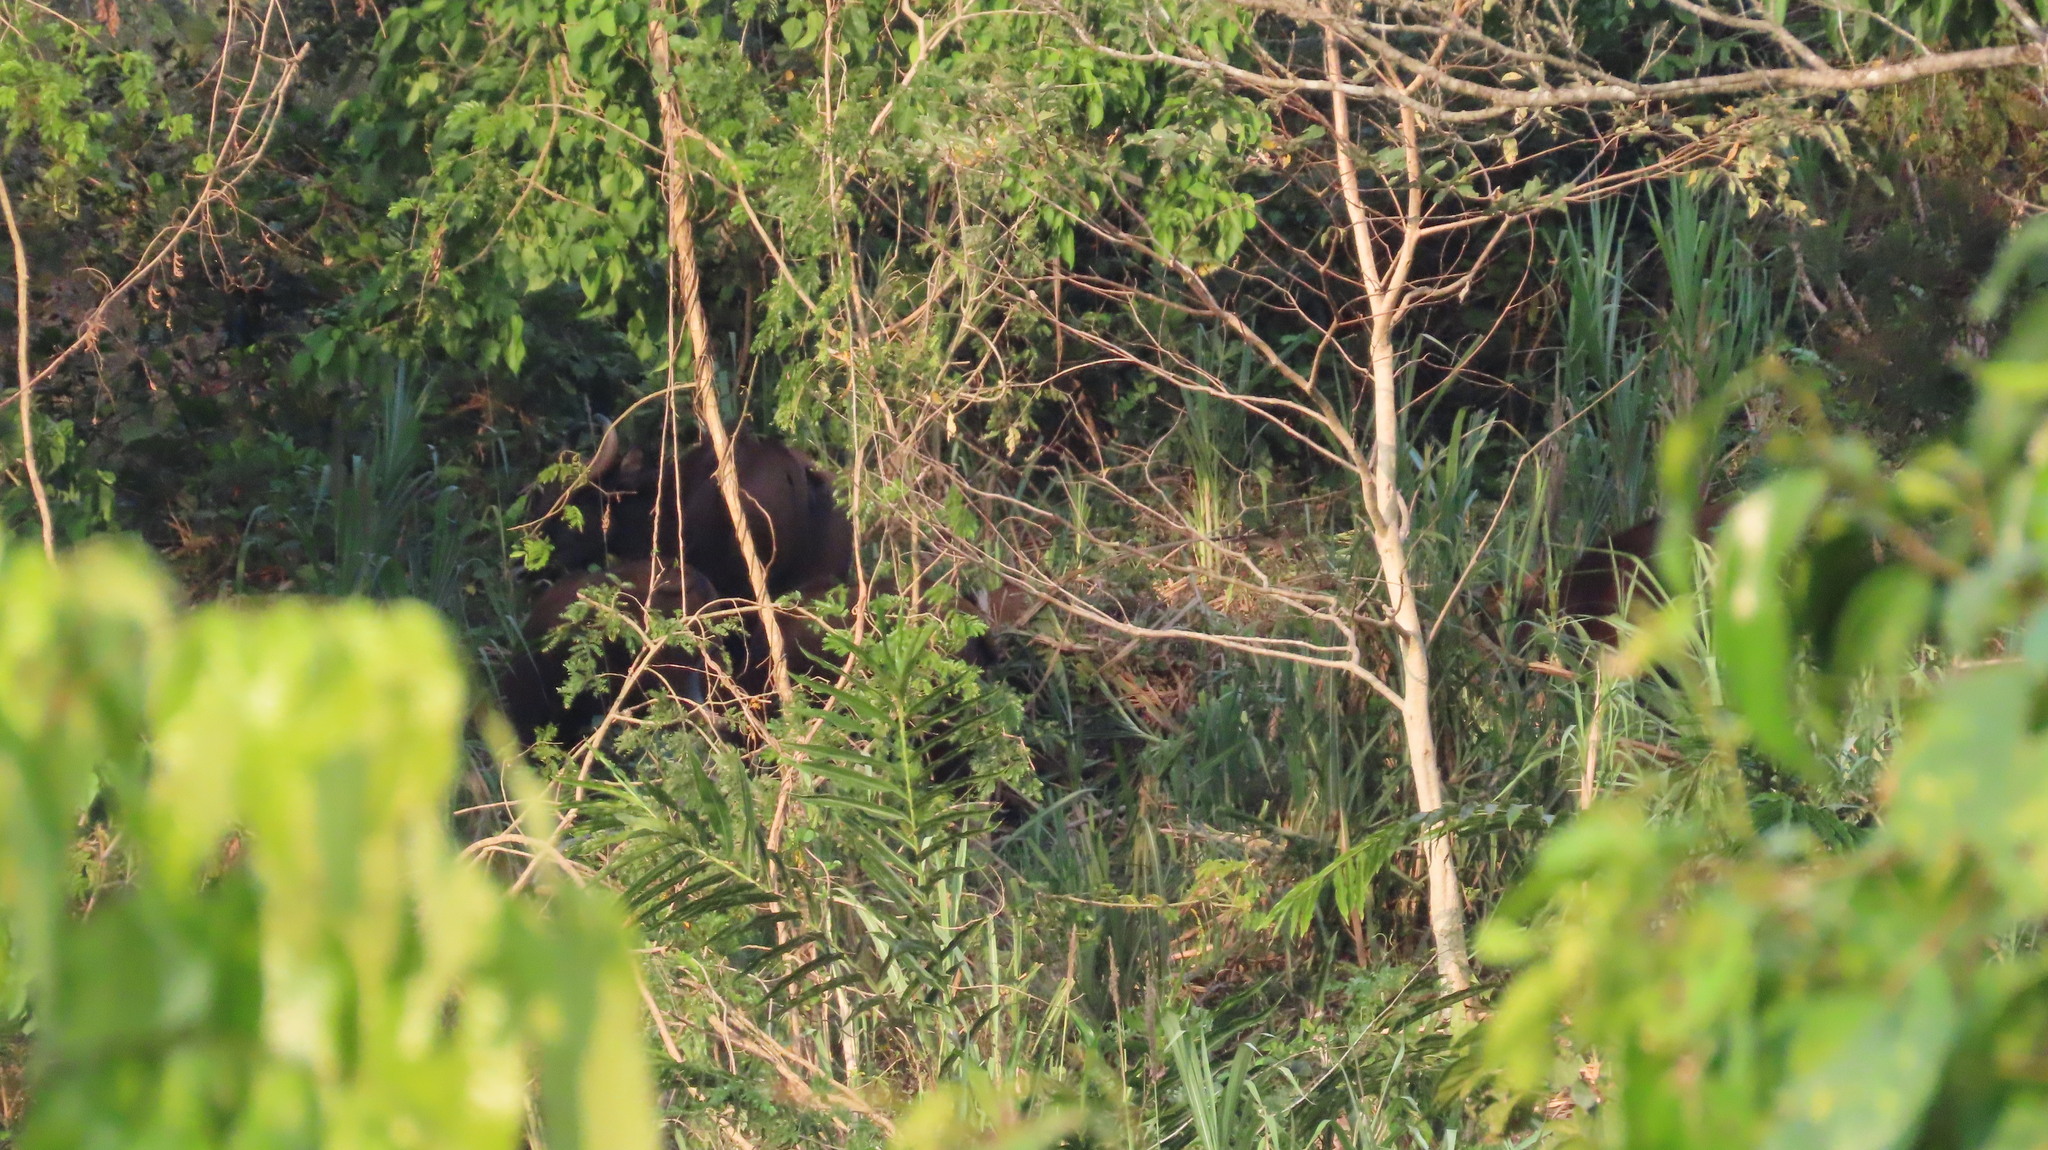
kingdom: Animalia
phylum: Chordata
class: Mammalia
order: Artiodactyla
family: Bovidae
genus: Bos
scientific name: Bos frontalis
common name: Gaur
